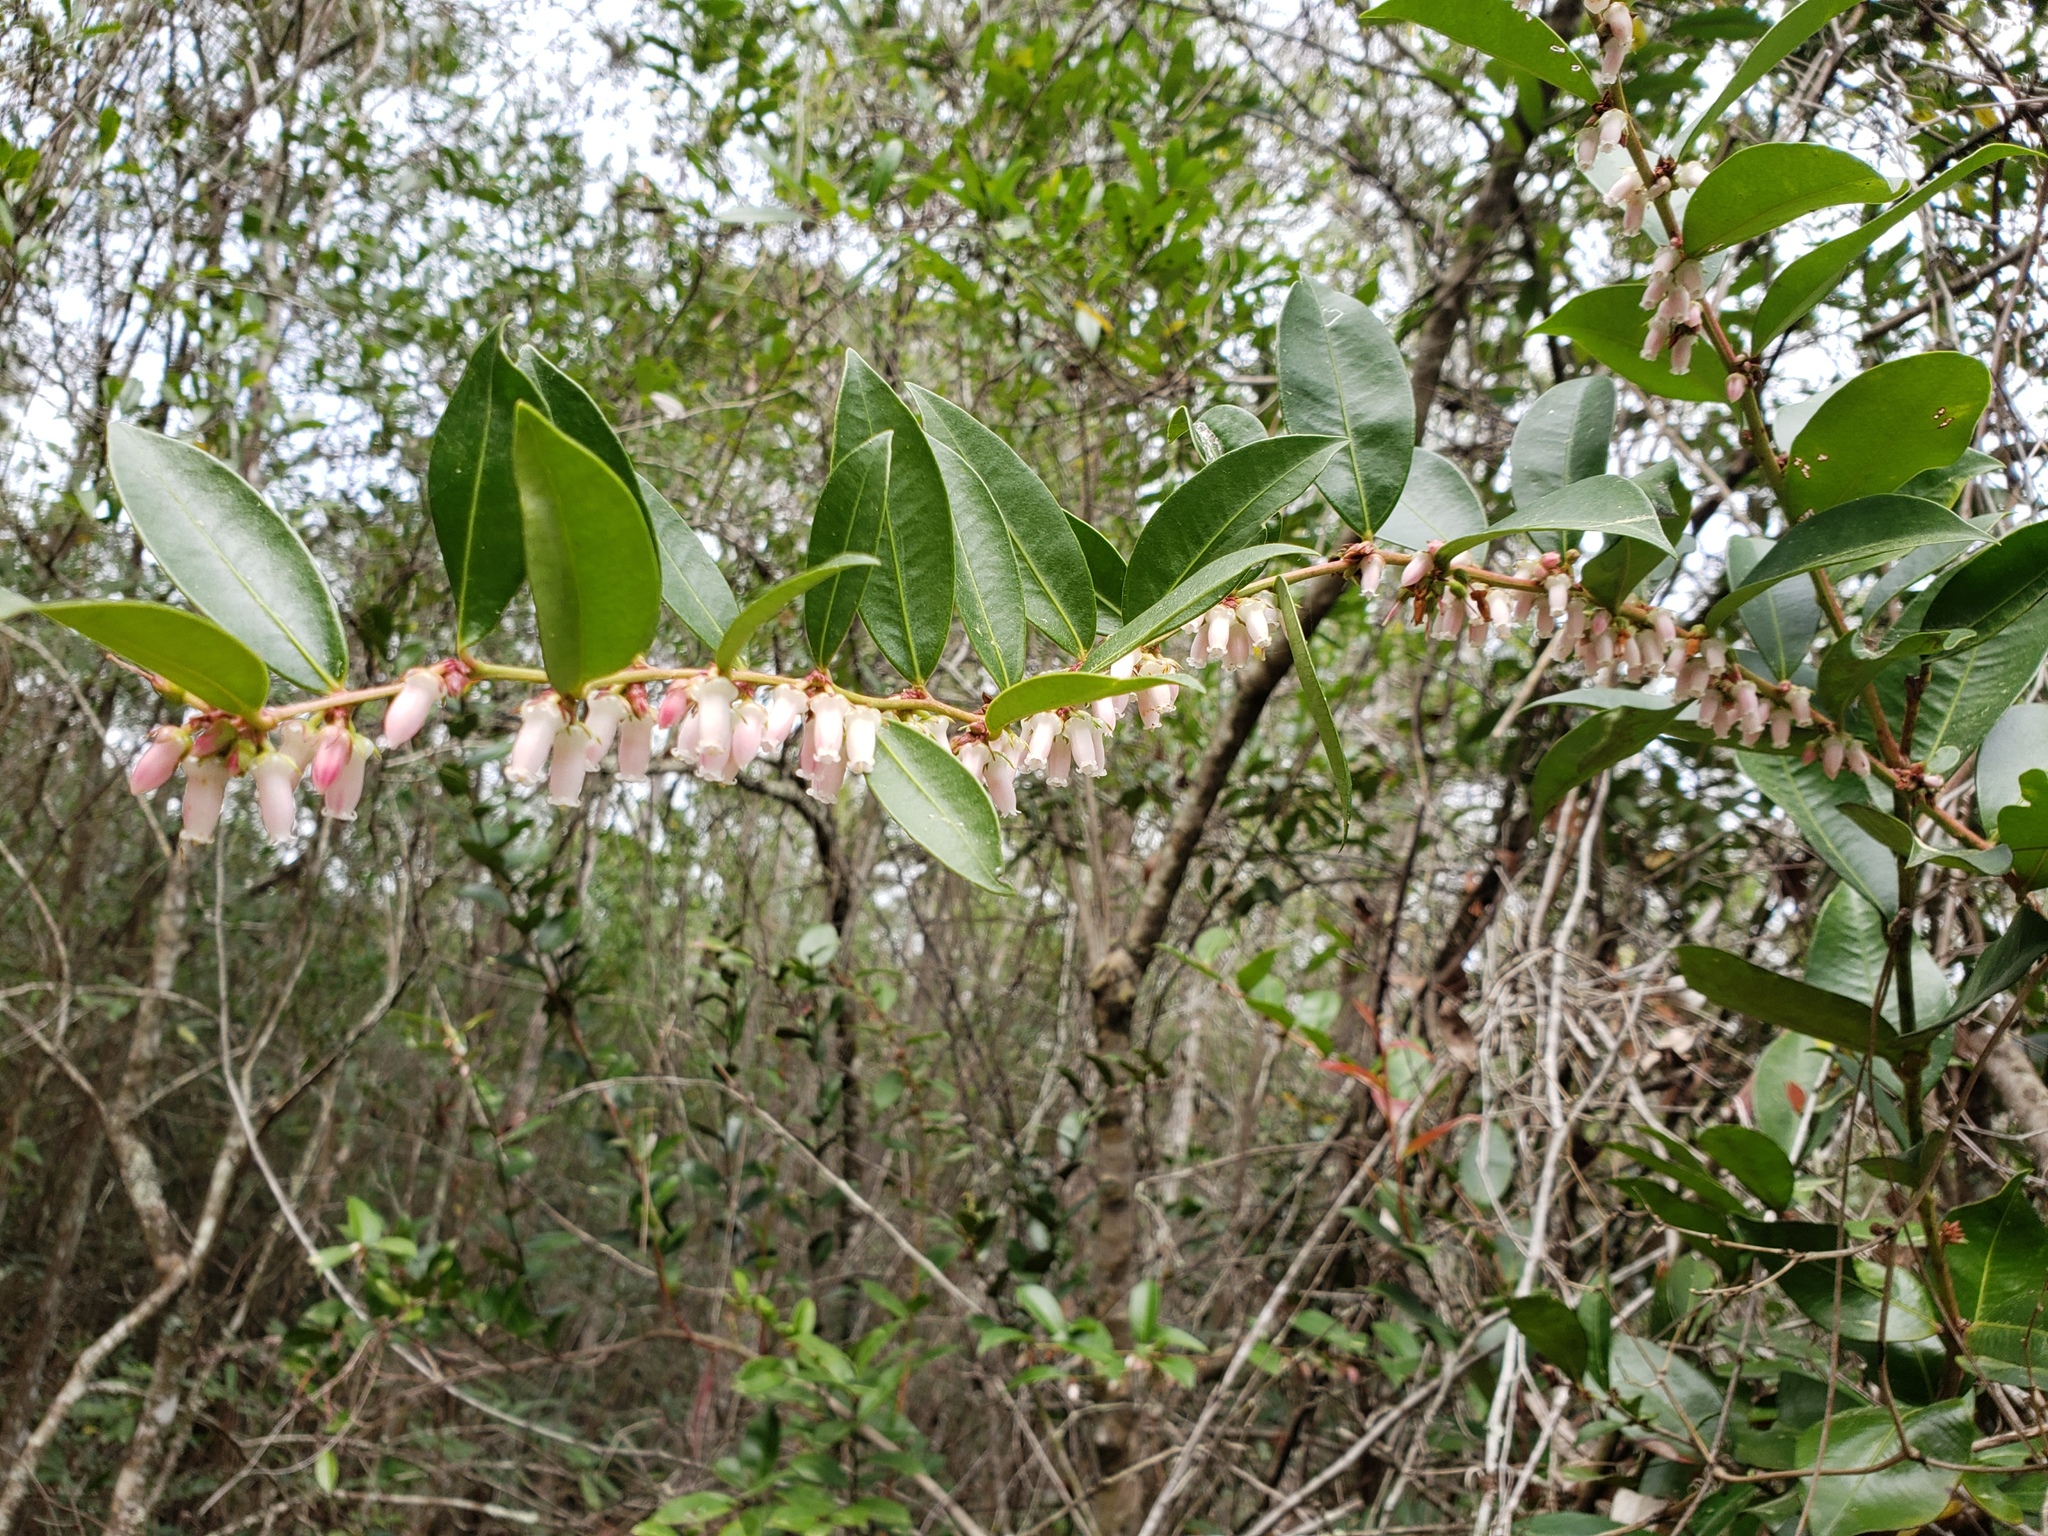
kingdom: Plantae
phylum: Tracheophyta
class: Magnoliopsida
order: Ericales
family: Ericaceae
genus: Lyonia
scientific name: Lyonia lucida
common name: Fetterbush
